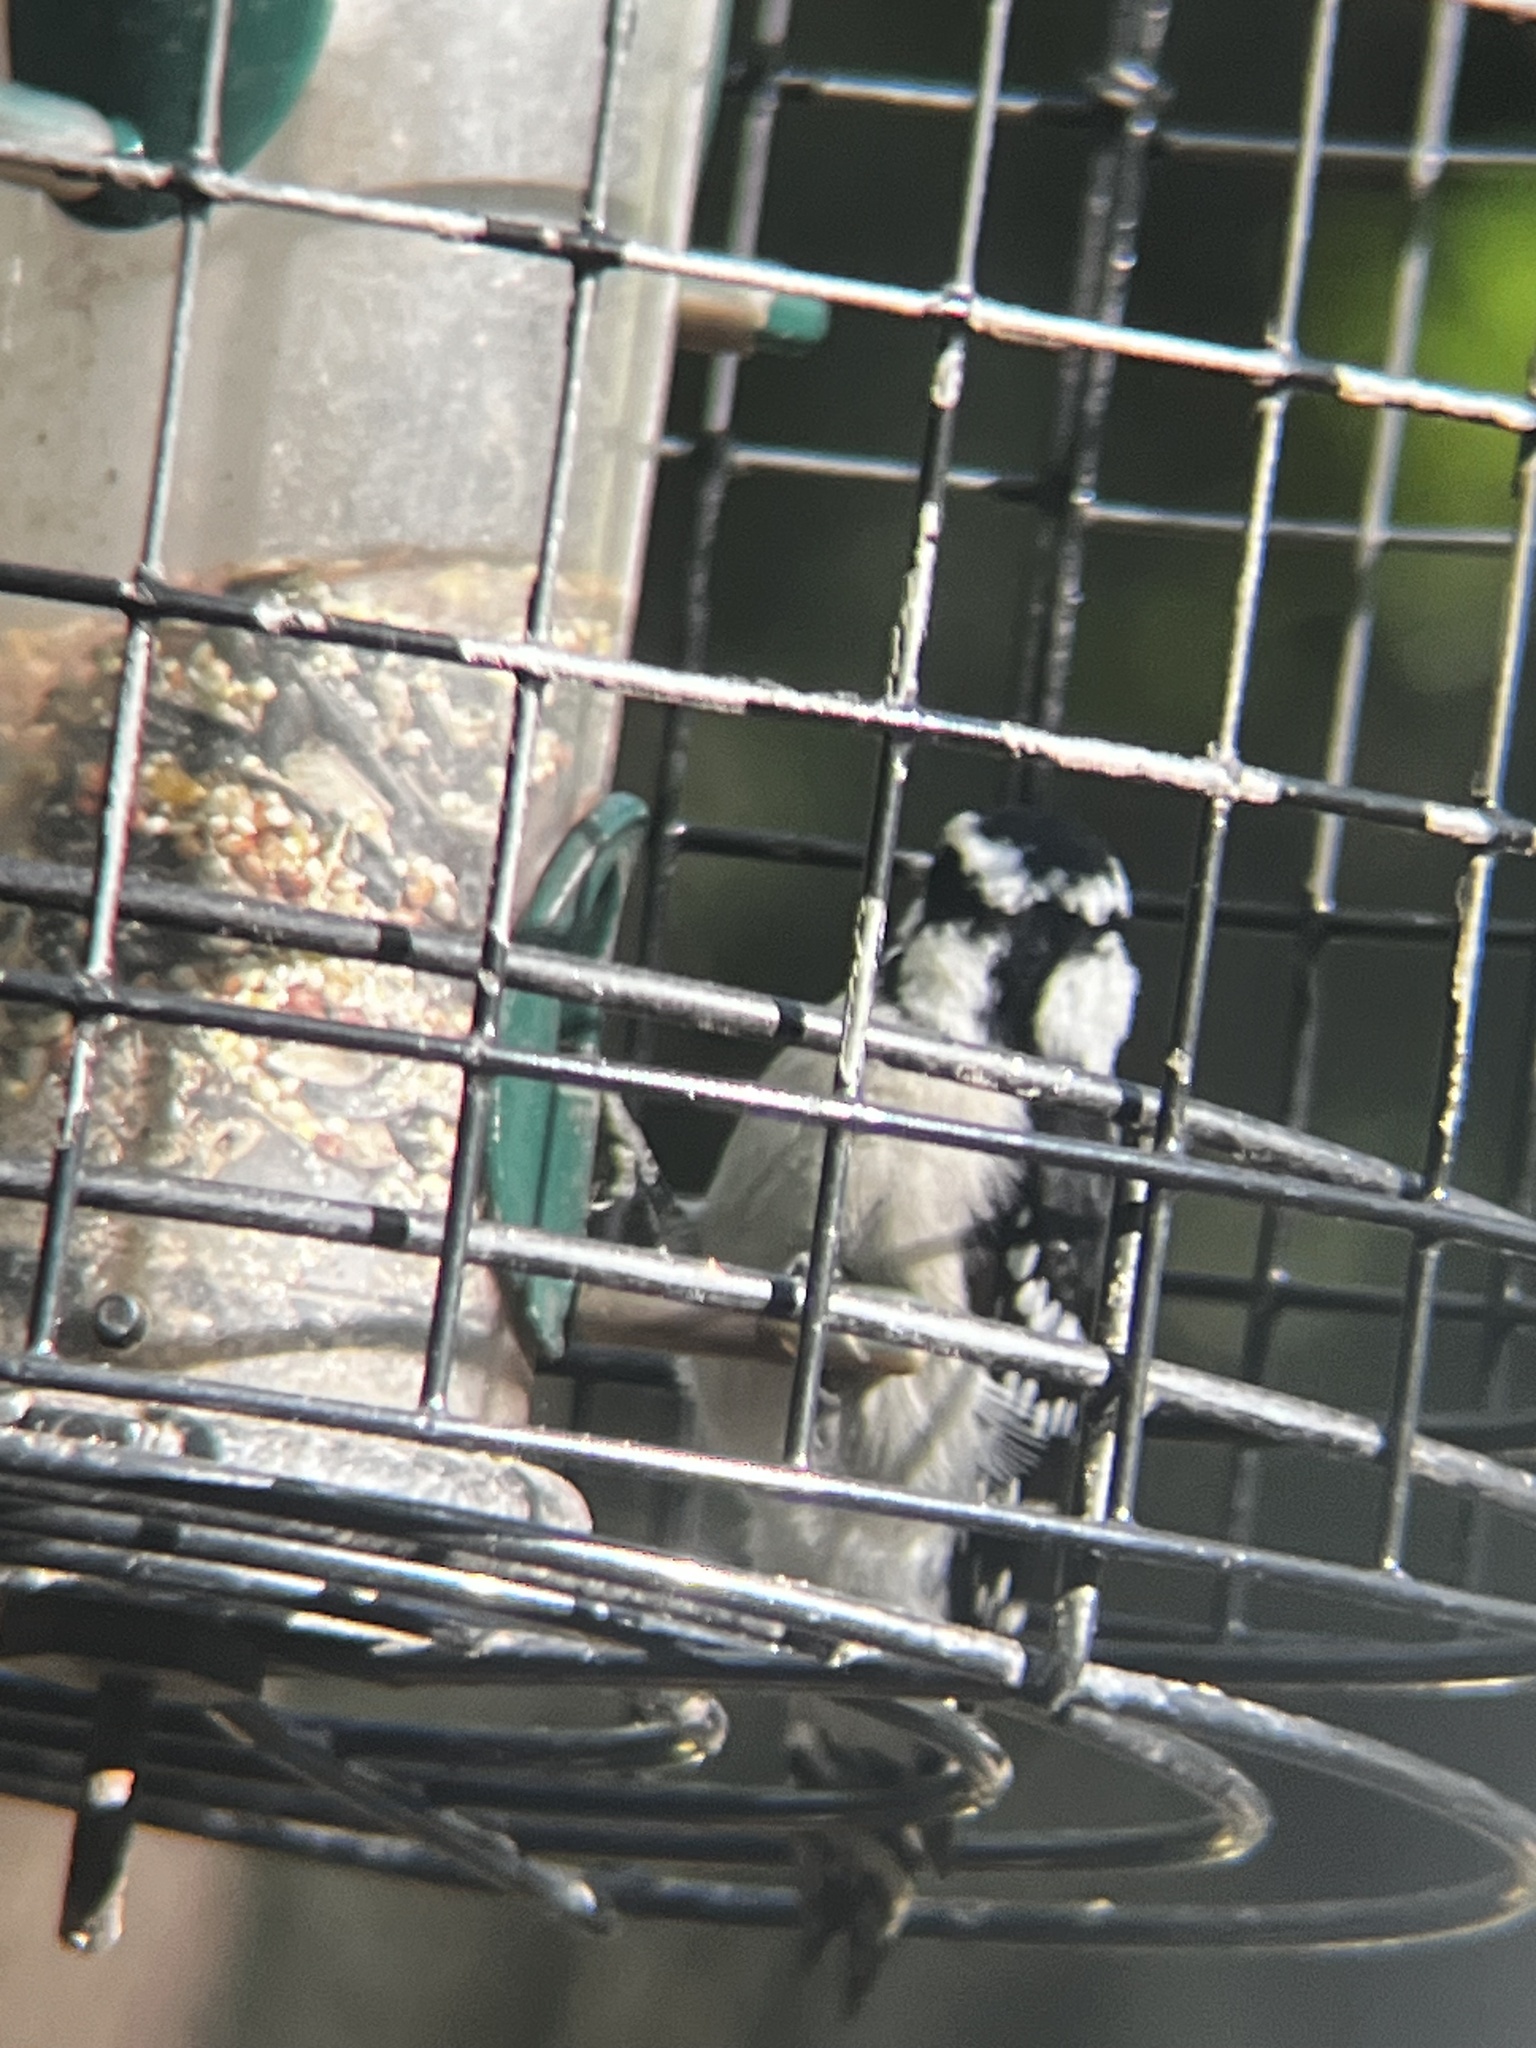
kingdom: Animalia
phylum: Chordata
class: Aves
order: Piciformes
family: Picidae
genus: Dryobates
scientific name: Dryobates pubescens
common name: Downy woodpecker
